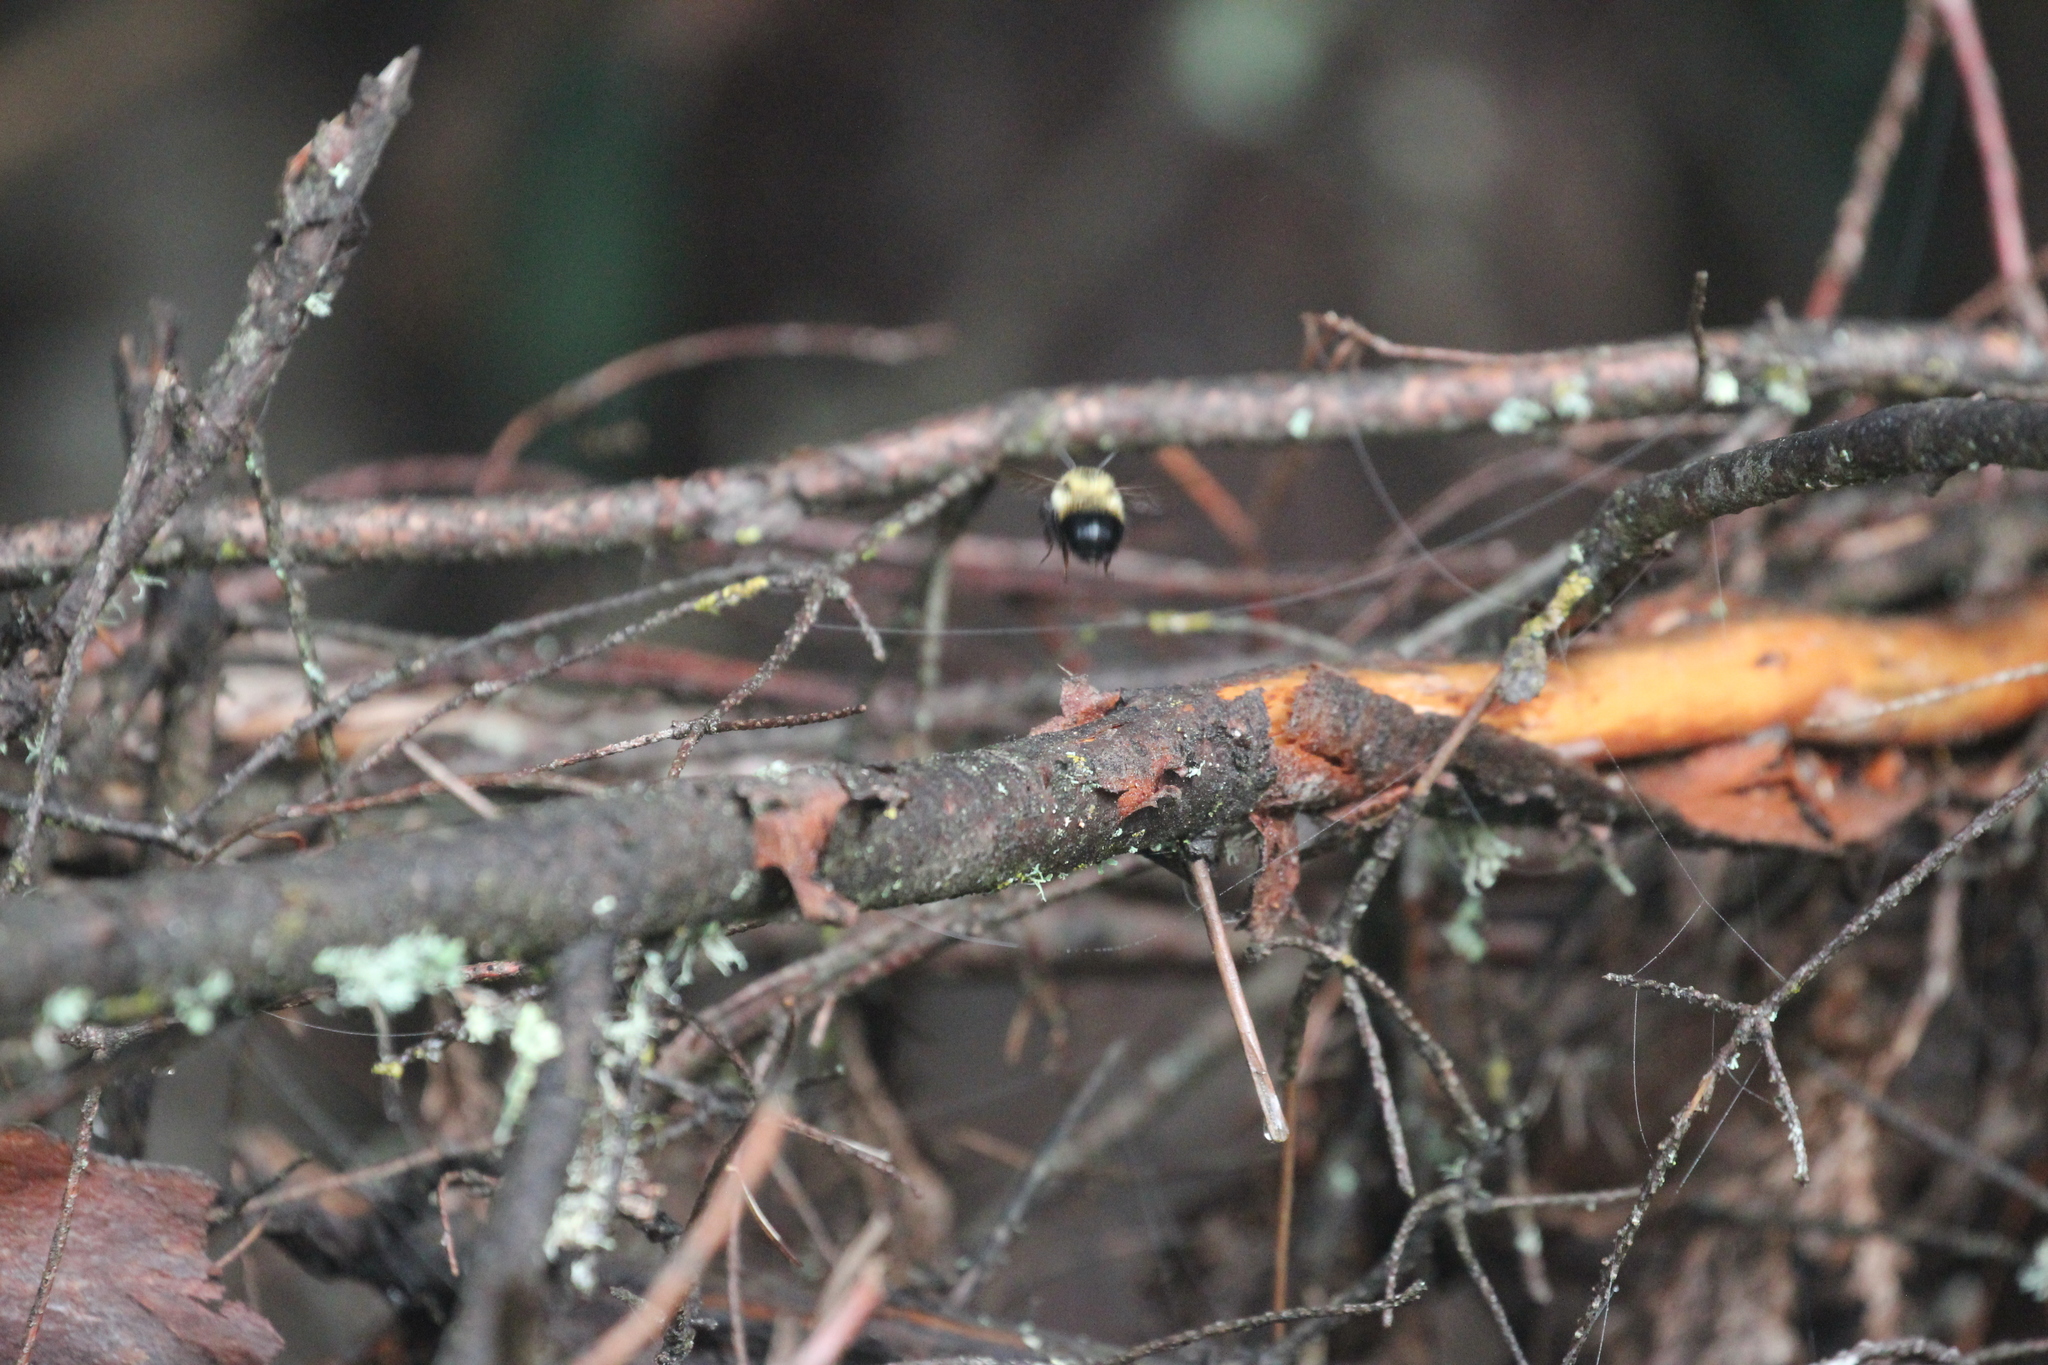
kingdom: Animalia
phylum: Arthropoda
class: Insecta
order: Hymenoptera
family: Apidae
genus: Pyrobombus
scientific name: Pyrobombus
